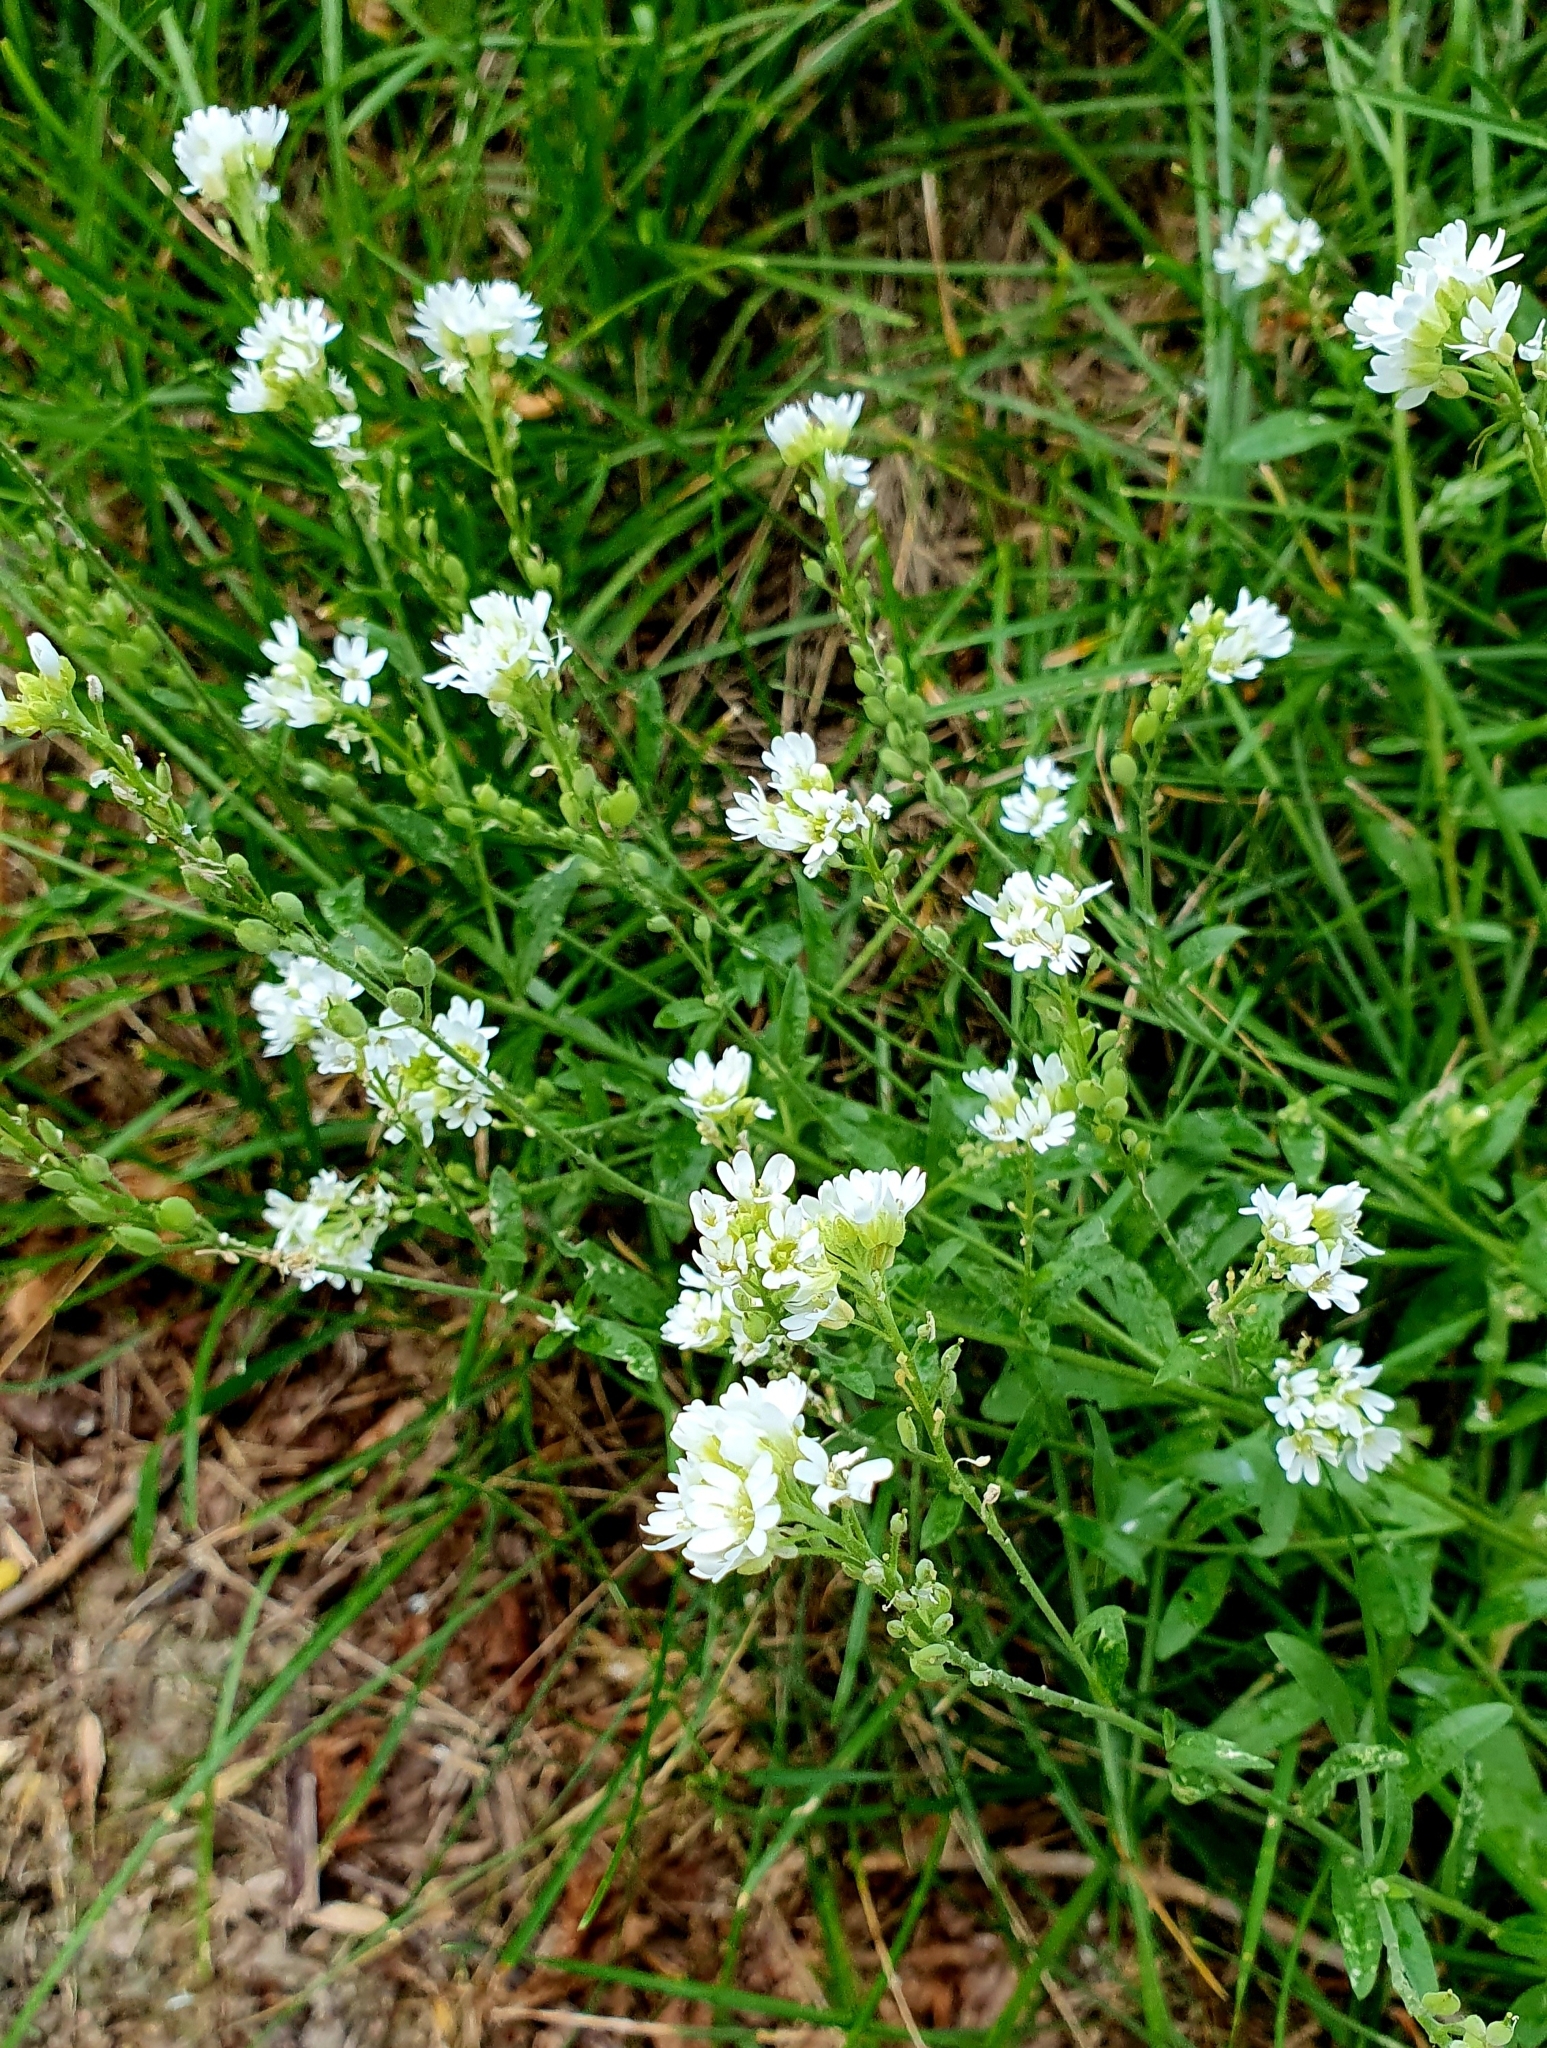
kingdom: Plantae
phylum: Tracheophyta
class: Magnoliopsida
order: Brassicales
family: Brassicaceae
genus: Berteroa
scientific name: Berteroa incana
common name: Hoary alison
